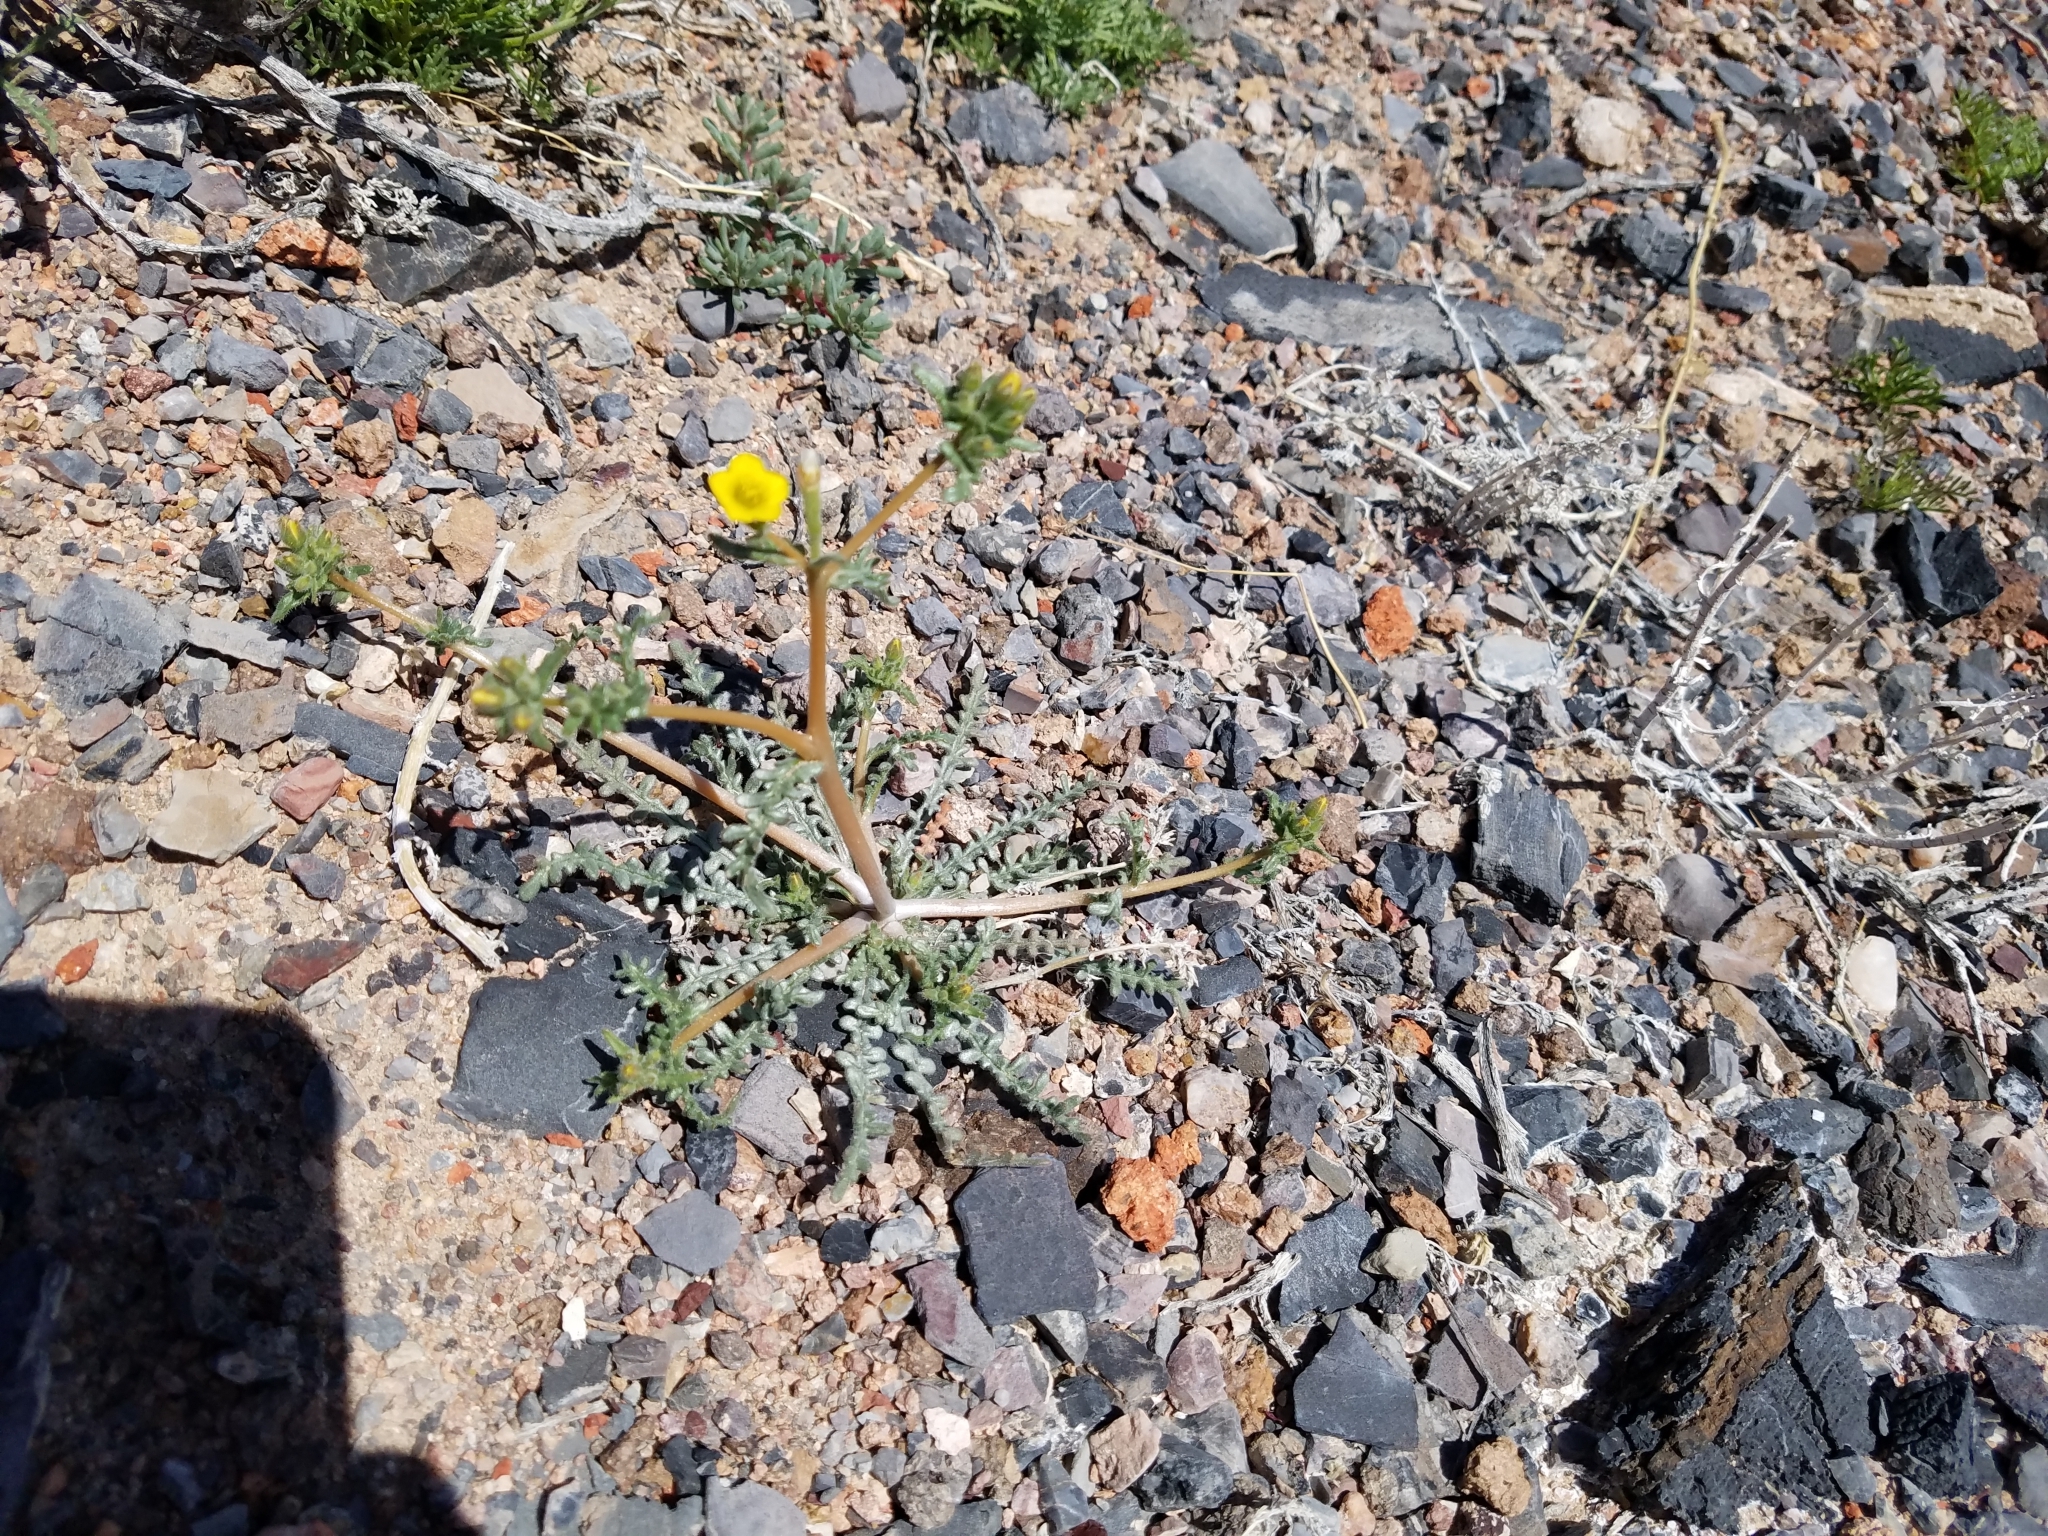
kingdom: Plantae
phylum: Tracheophyta
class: Magnoliopsida
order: Cornales
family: Loasaceae
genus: Mentzelia
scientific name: Mentzelia albicaulis
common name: White-stem blazingstar
